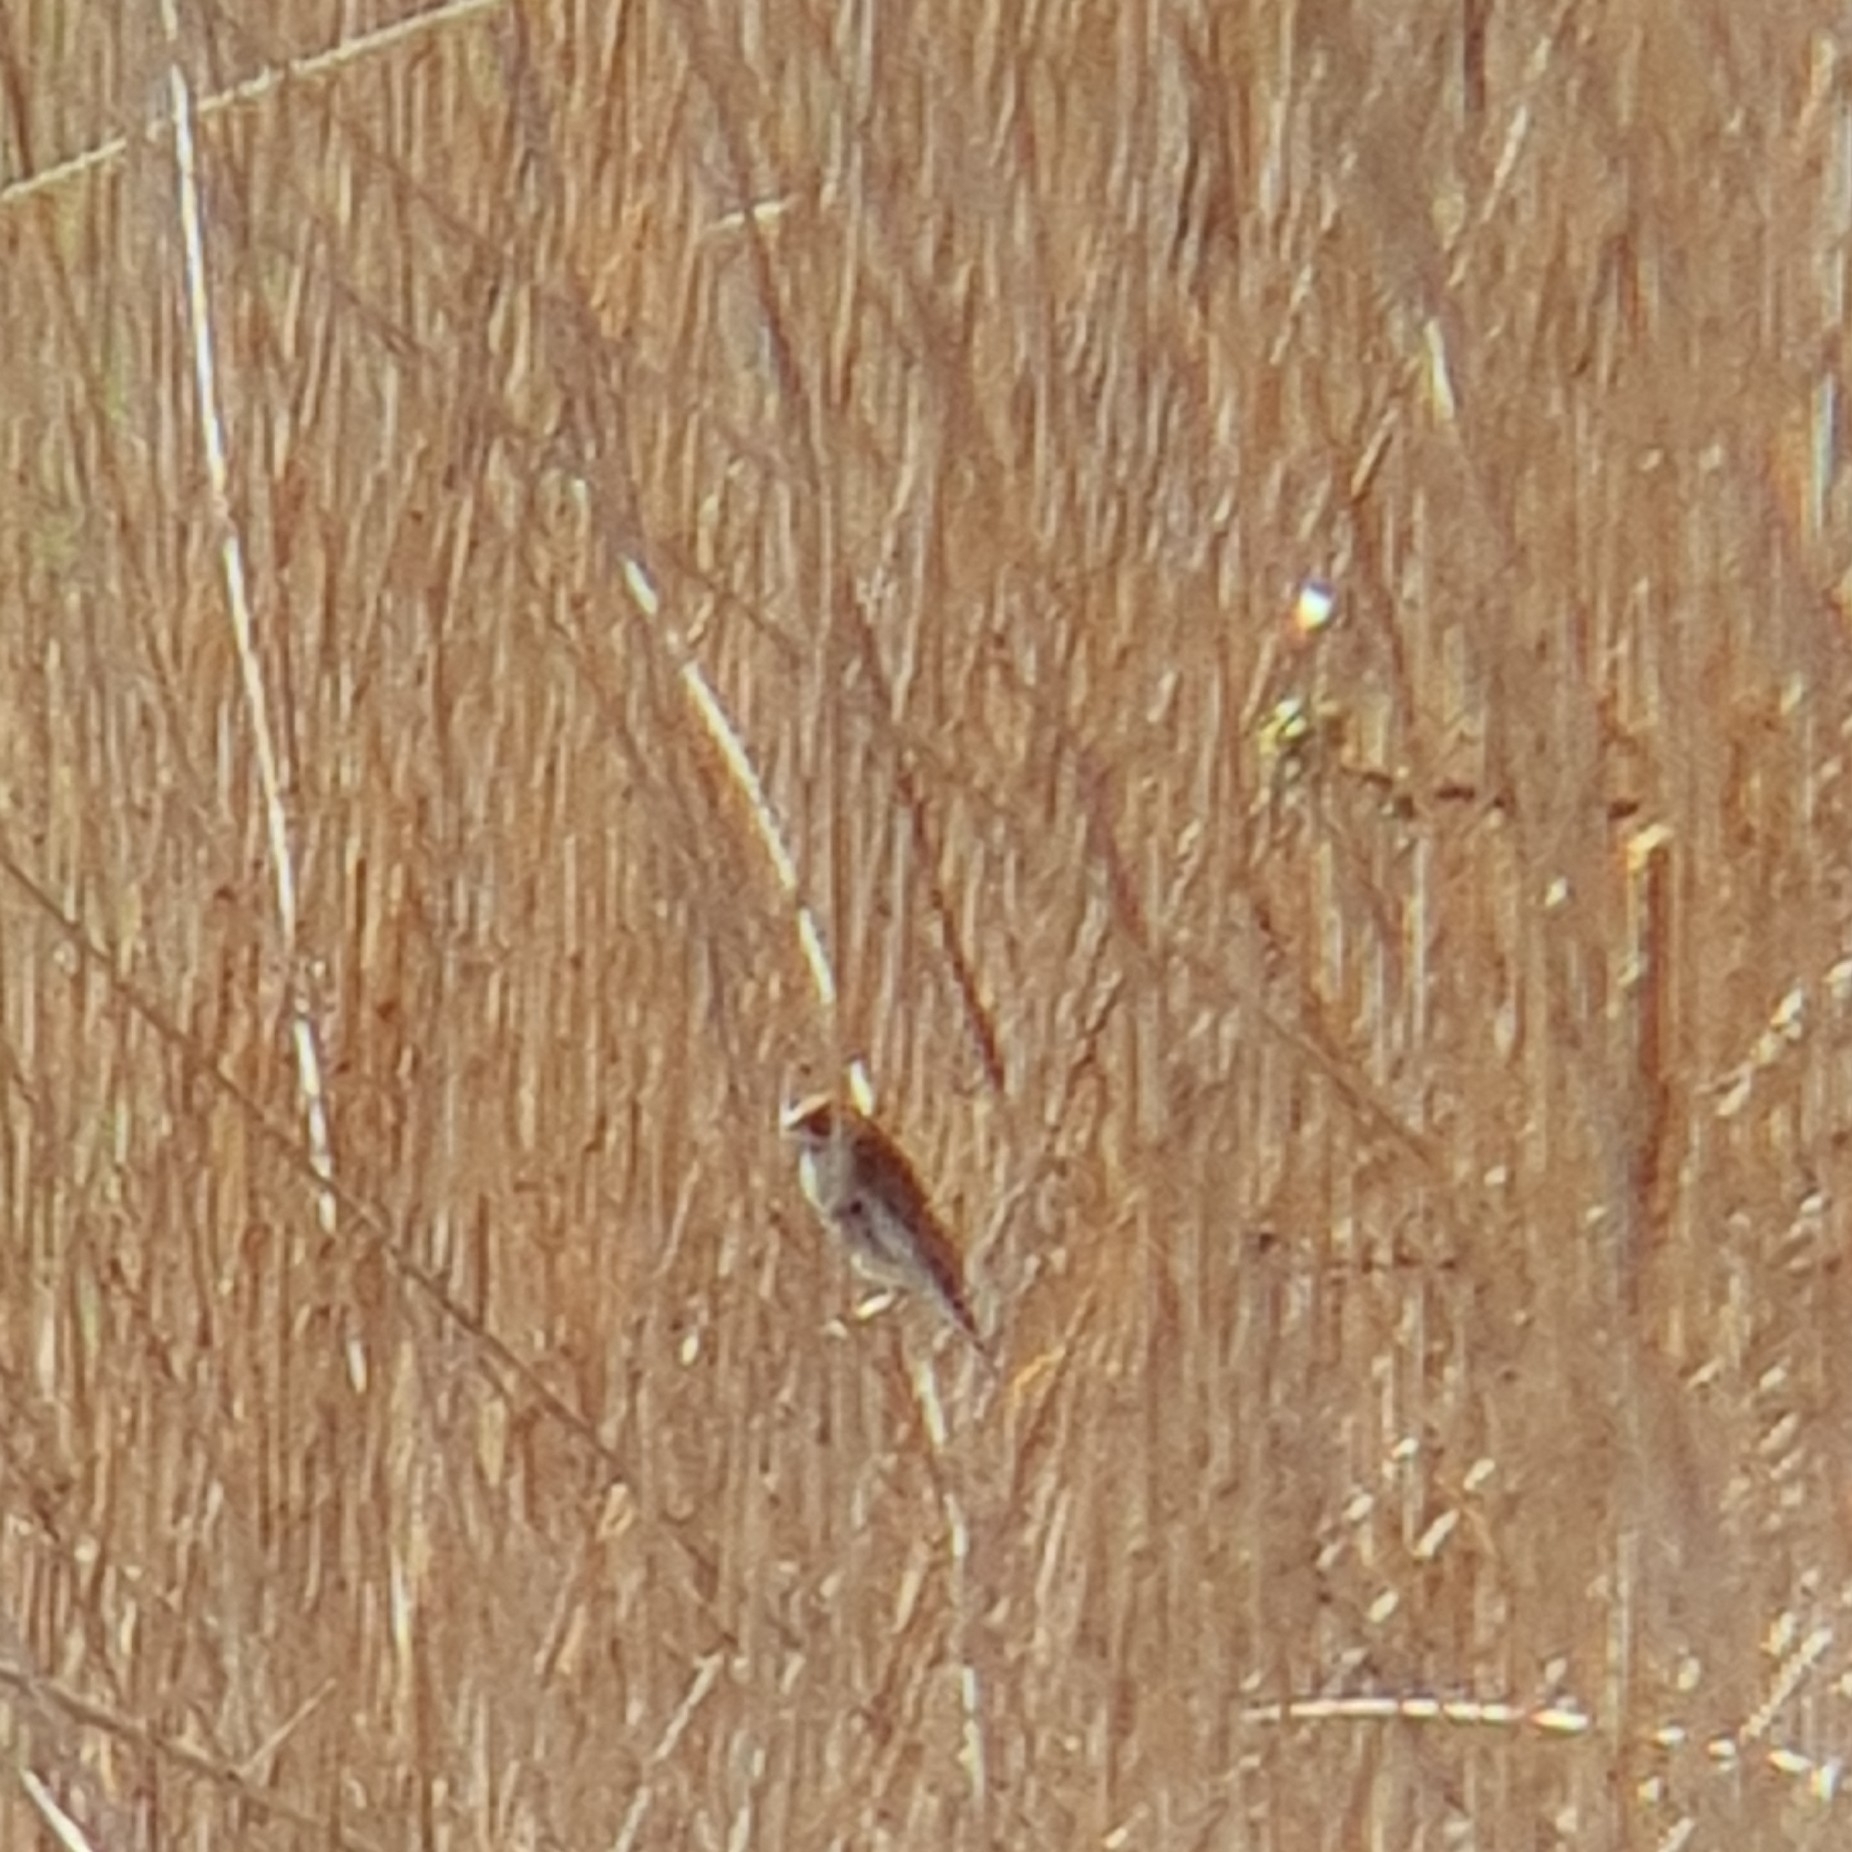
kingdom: Animalia
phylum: Chordata
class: Aves
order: Passeriformes
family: Emberizidae
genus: Emberiza
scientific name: Emberiza schoeniclus
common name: Reed bunting
